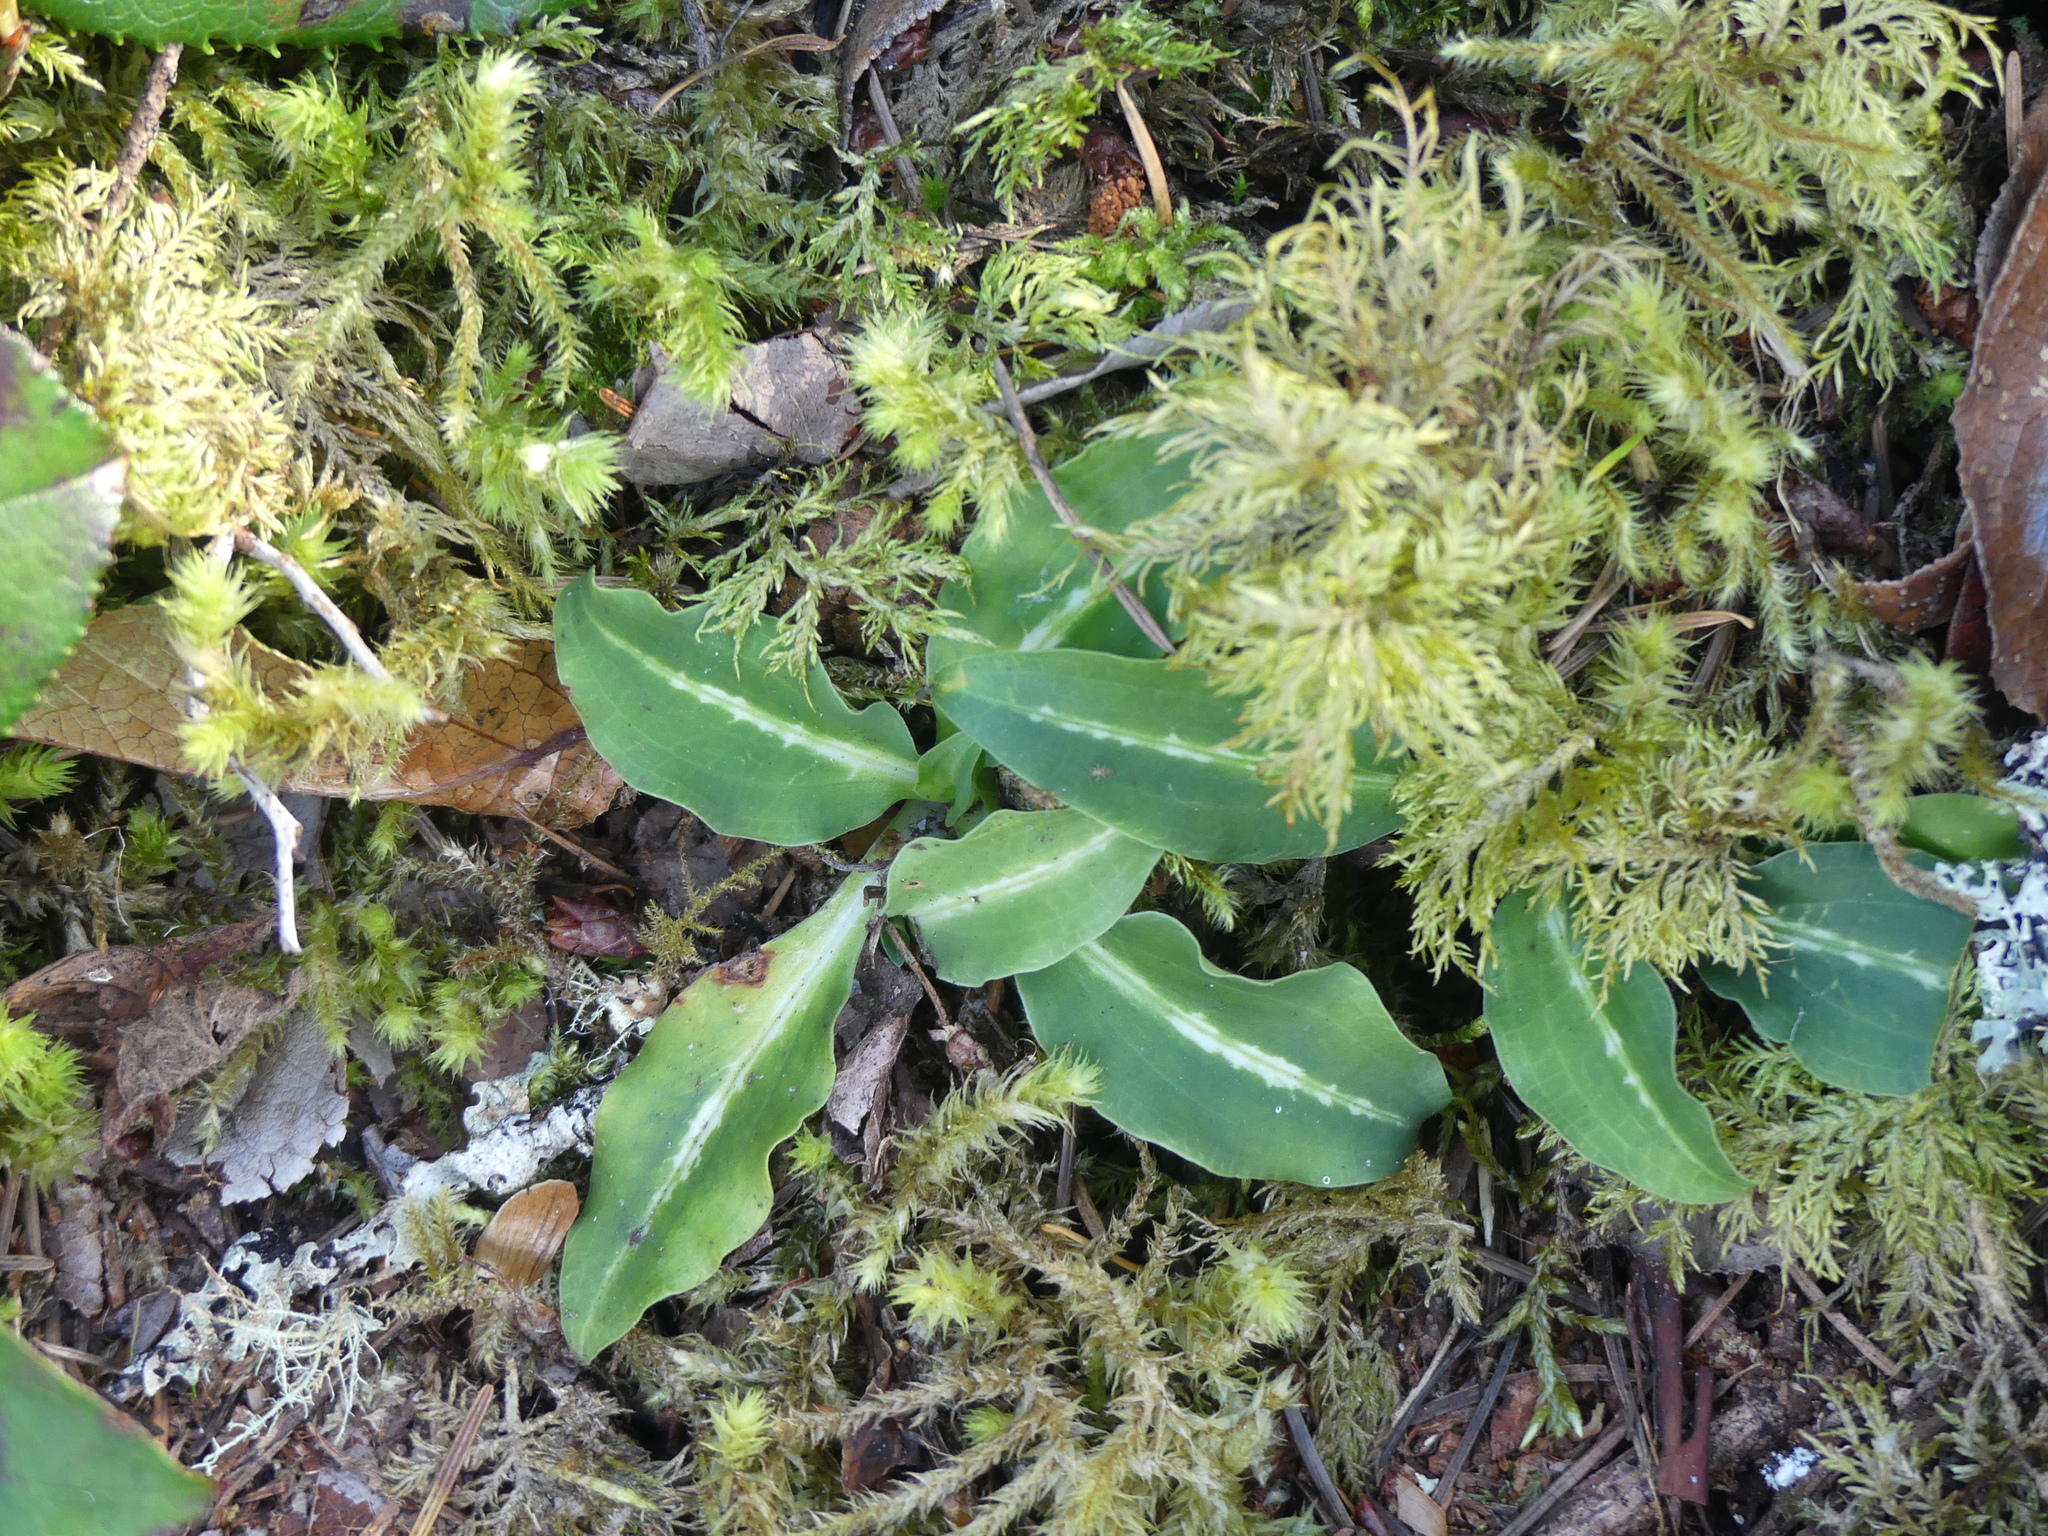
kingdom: Plantae
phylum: Tracheophyta
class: Liliopsida
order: Asparagales
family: Orchidaceae
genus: Goodyera
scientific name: Goodyera oblongifolia
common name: Giant rattlesnake-plantain
